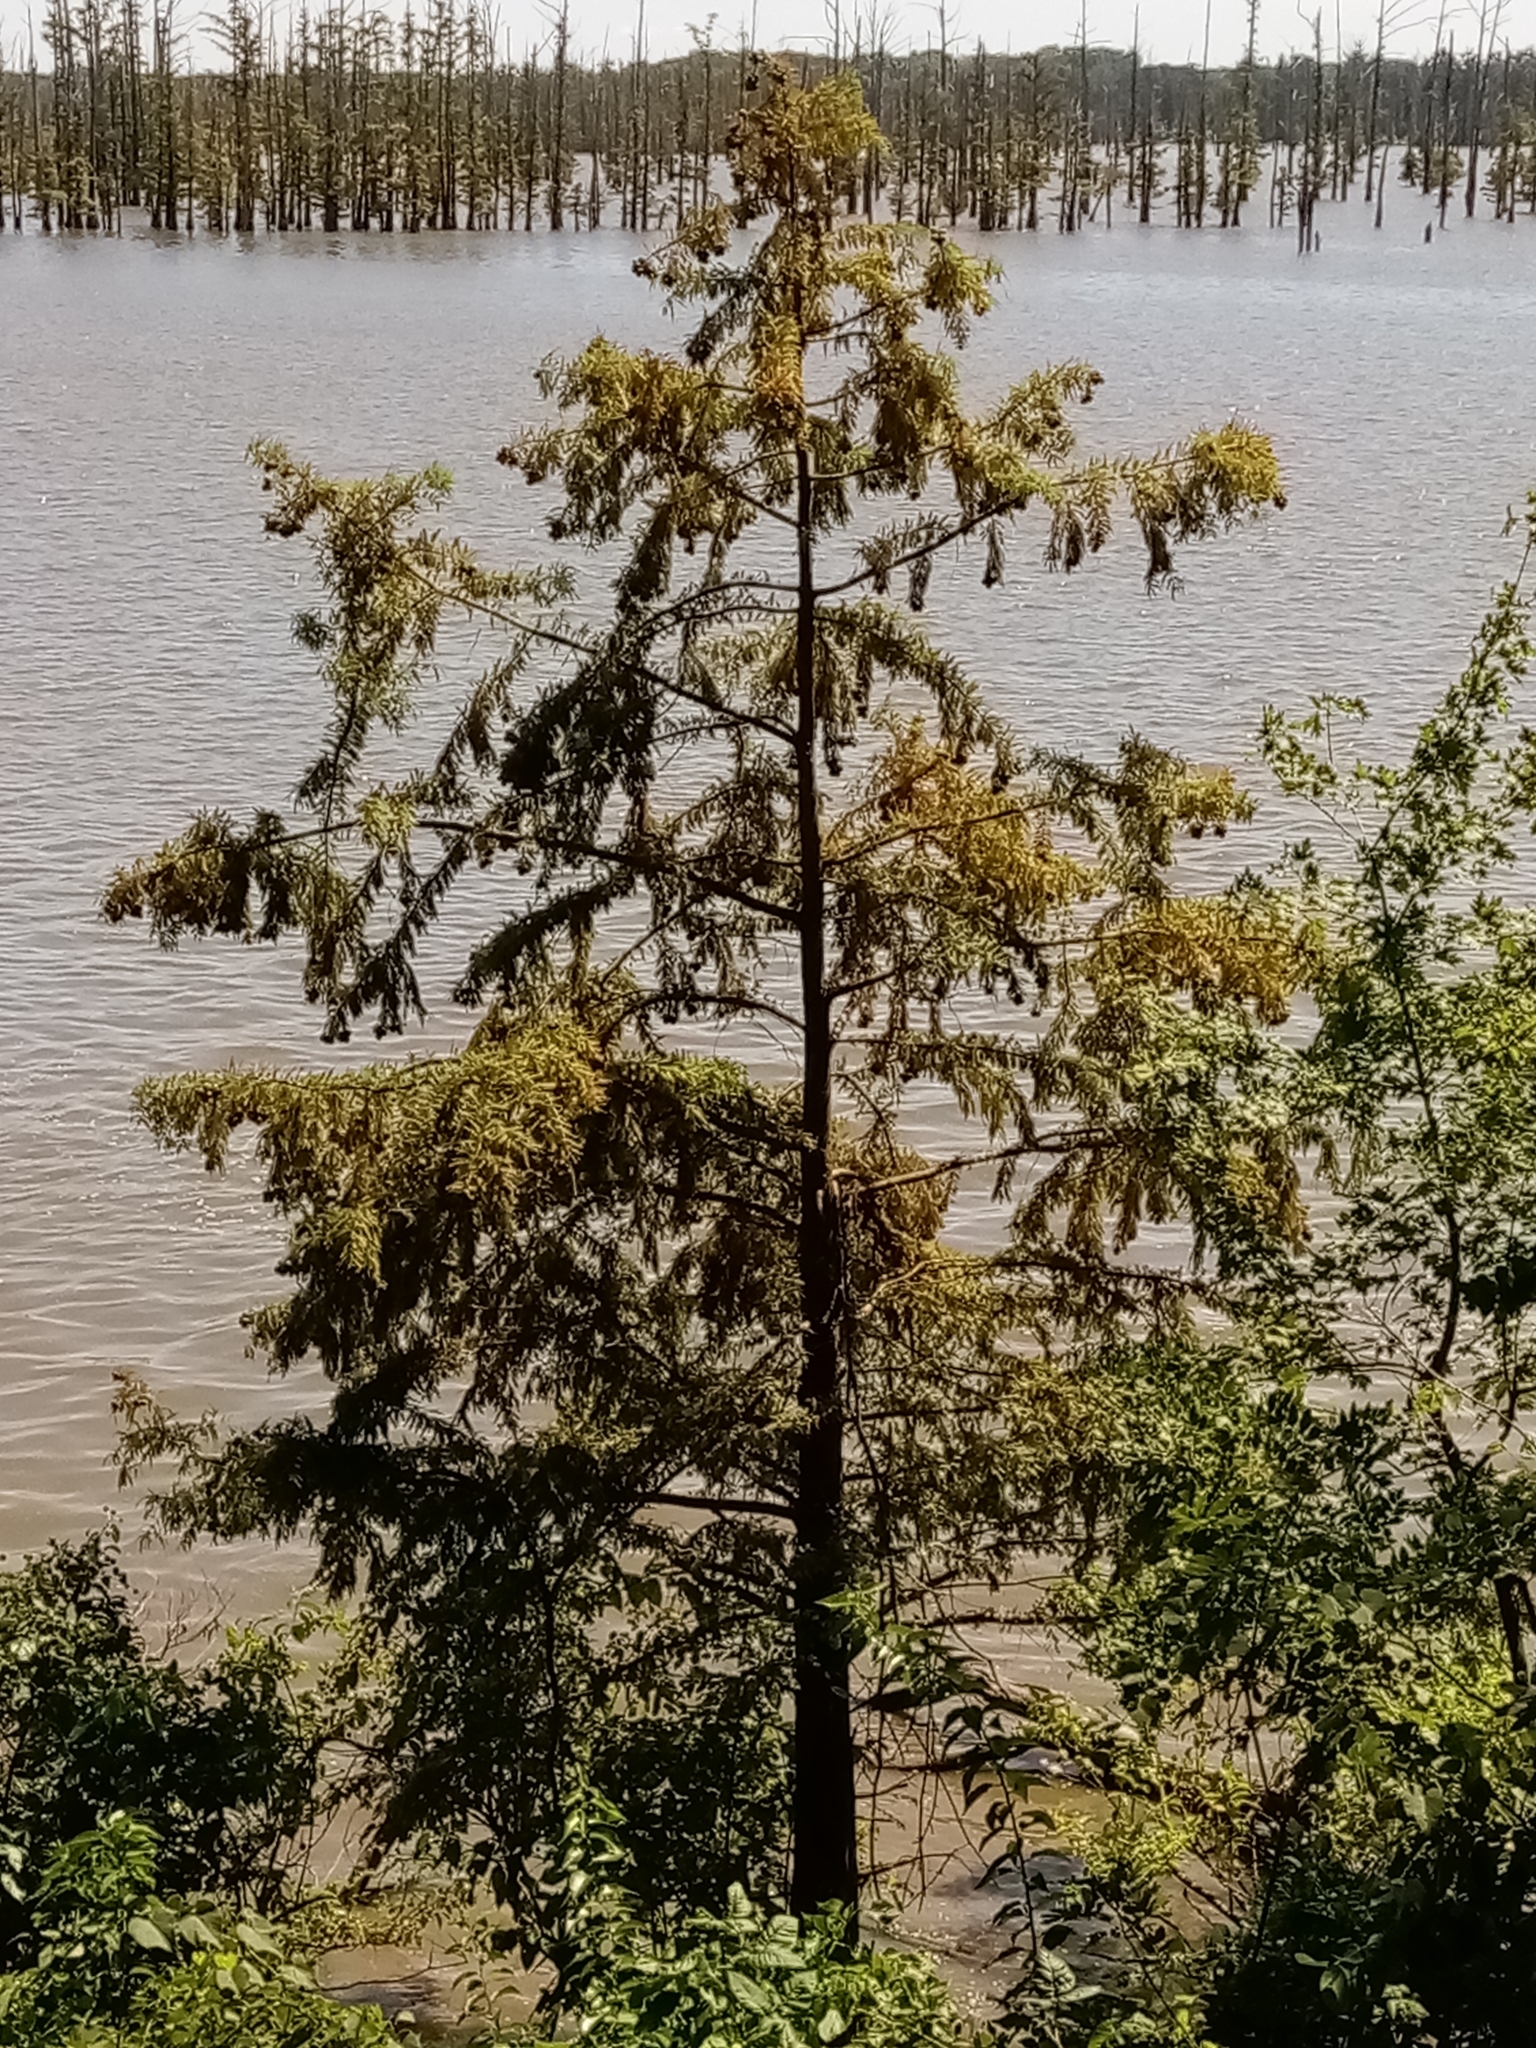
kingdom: Plantae
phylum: Tracheophyta
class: Pinopsida
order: Pinales
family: Cupressaceae
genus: Taxodium
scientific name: Taxodium distichum
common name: Bald cypress
